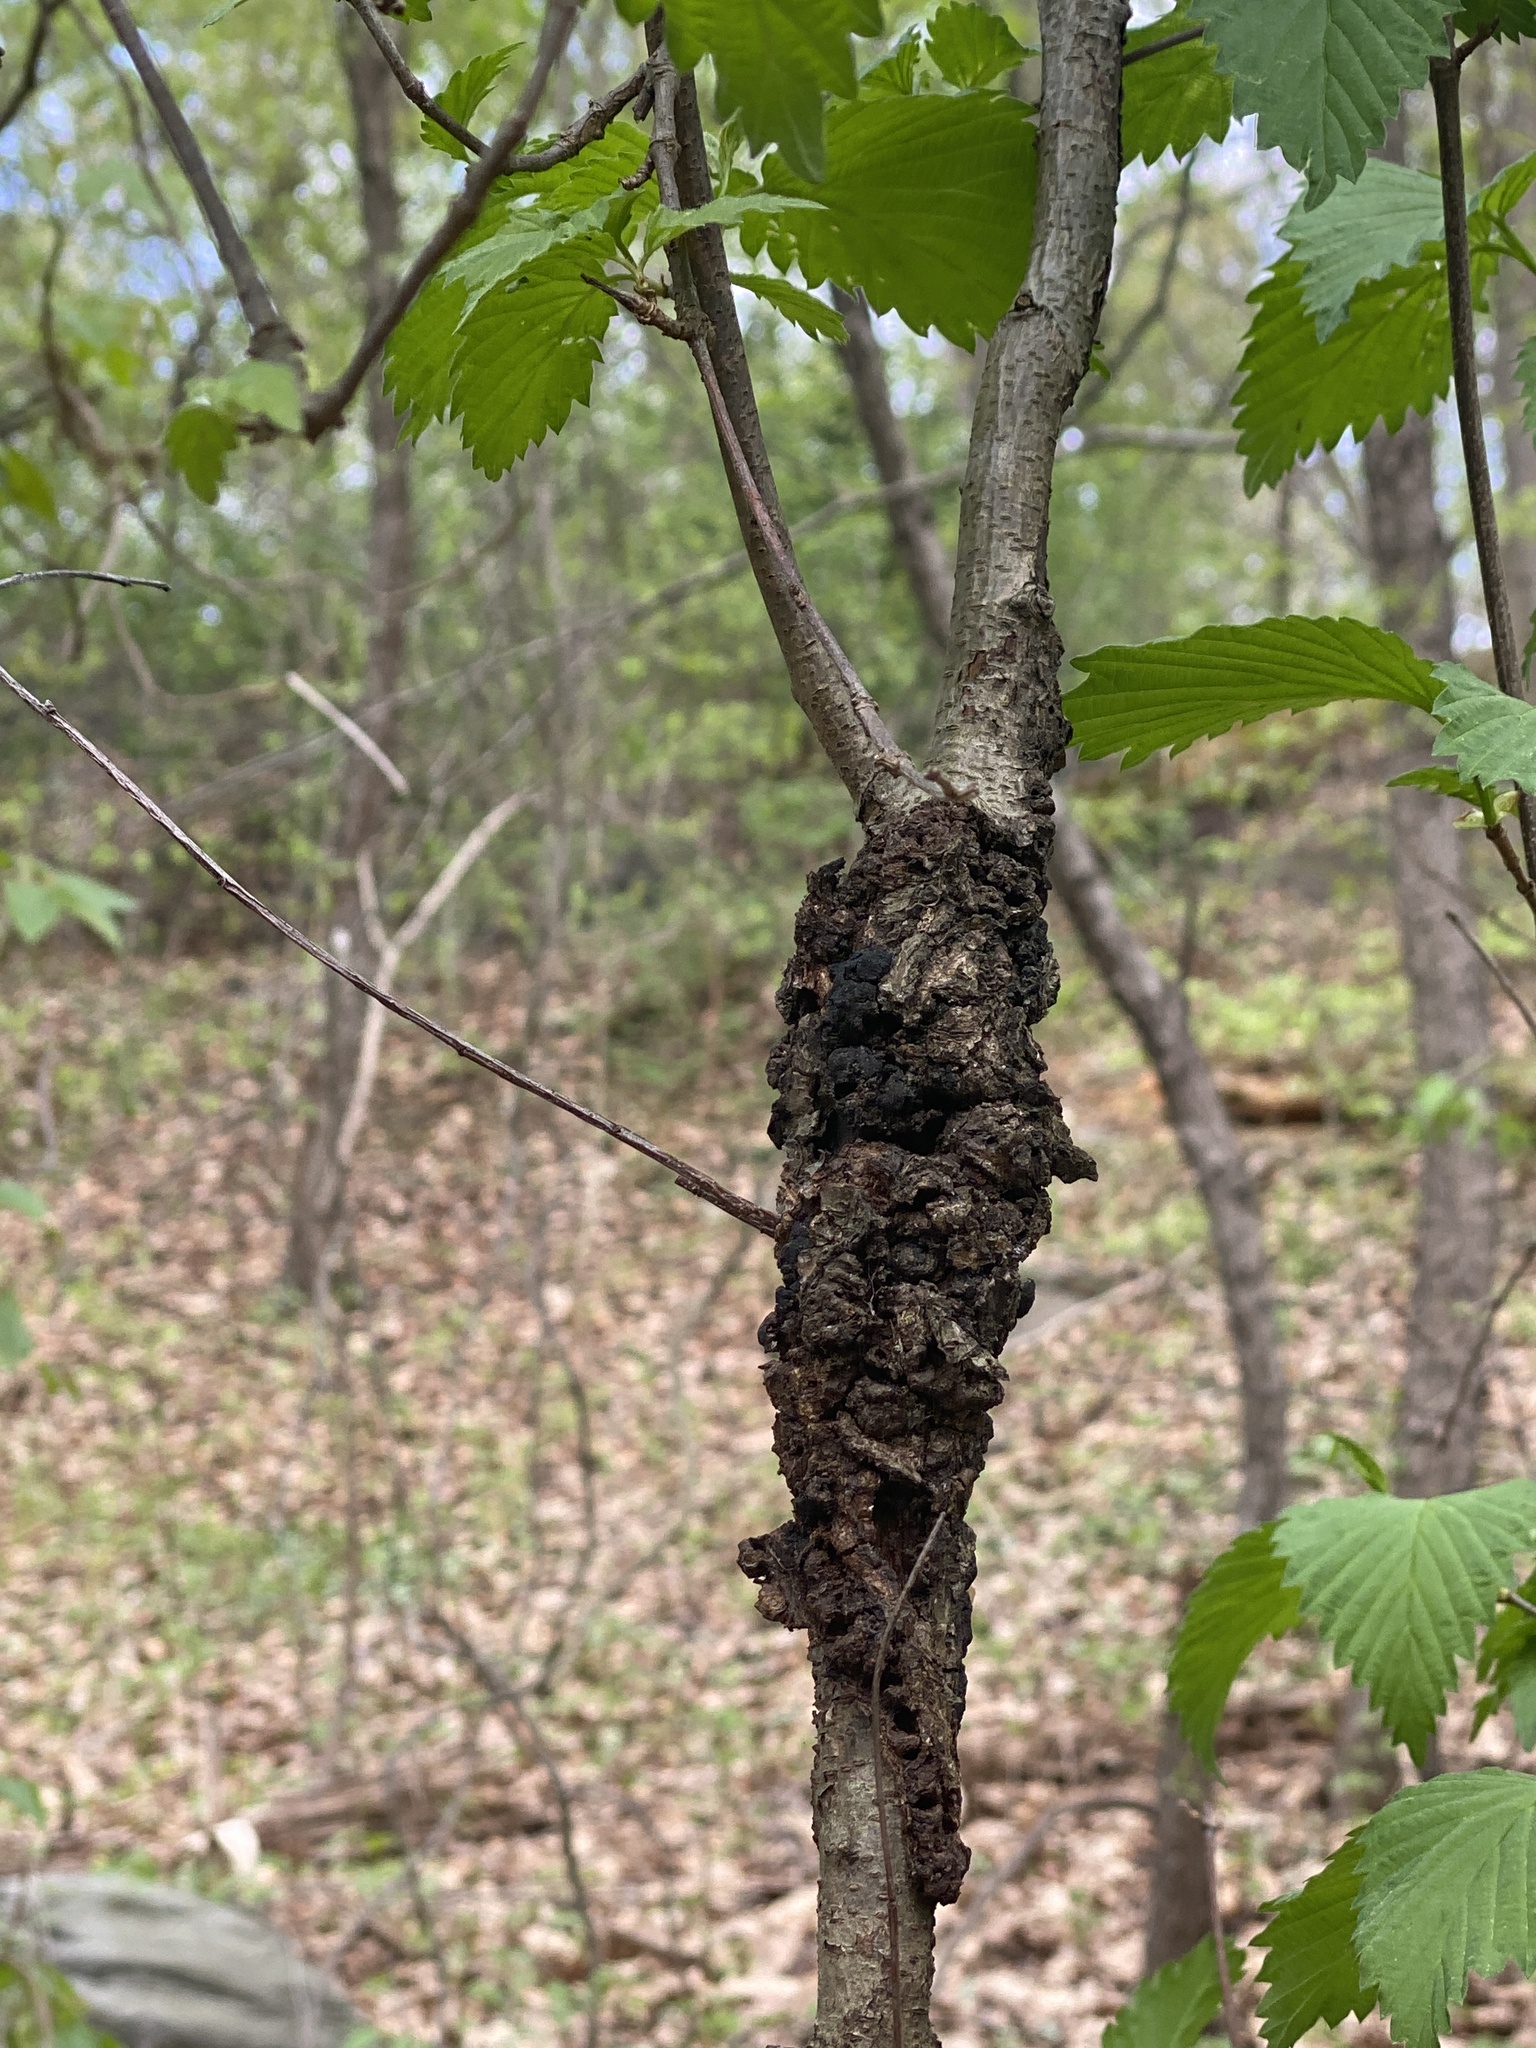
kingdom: Fungi
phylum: Ascomycota
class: Dothideomycetes
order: Venturiales
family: Venturiaceae
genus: Apiosporina
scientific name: Apiosporina morbosa
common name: Black knot
